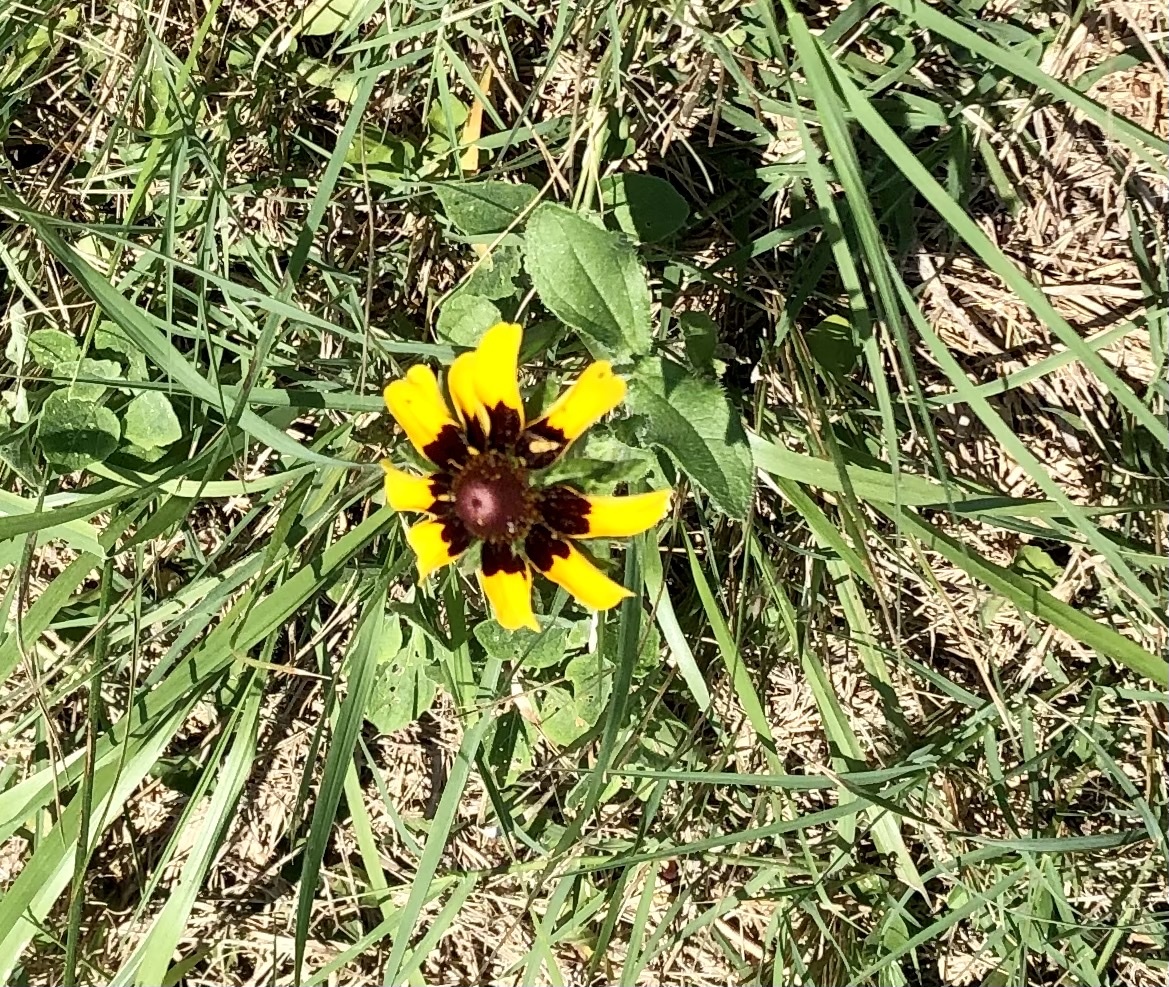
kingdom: Plantae
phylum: Tracheophyta
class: Magnoliopsida
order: Asterales
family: Asteraceae
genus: Rudbeckia
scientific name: Rudbeckia hirta
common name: Black-eyed-susan
